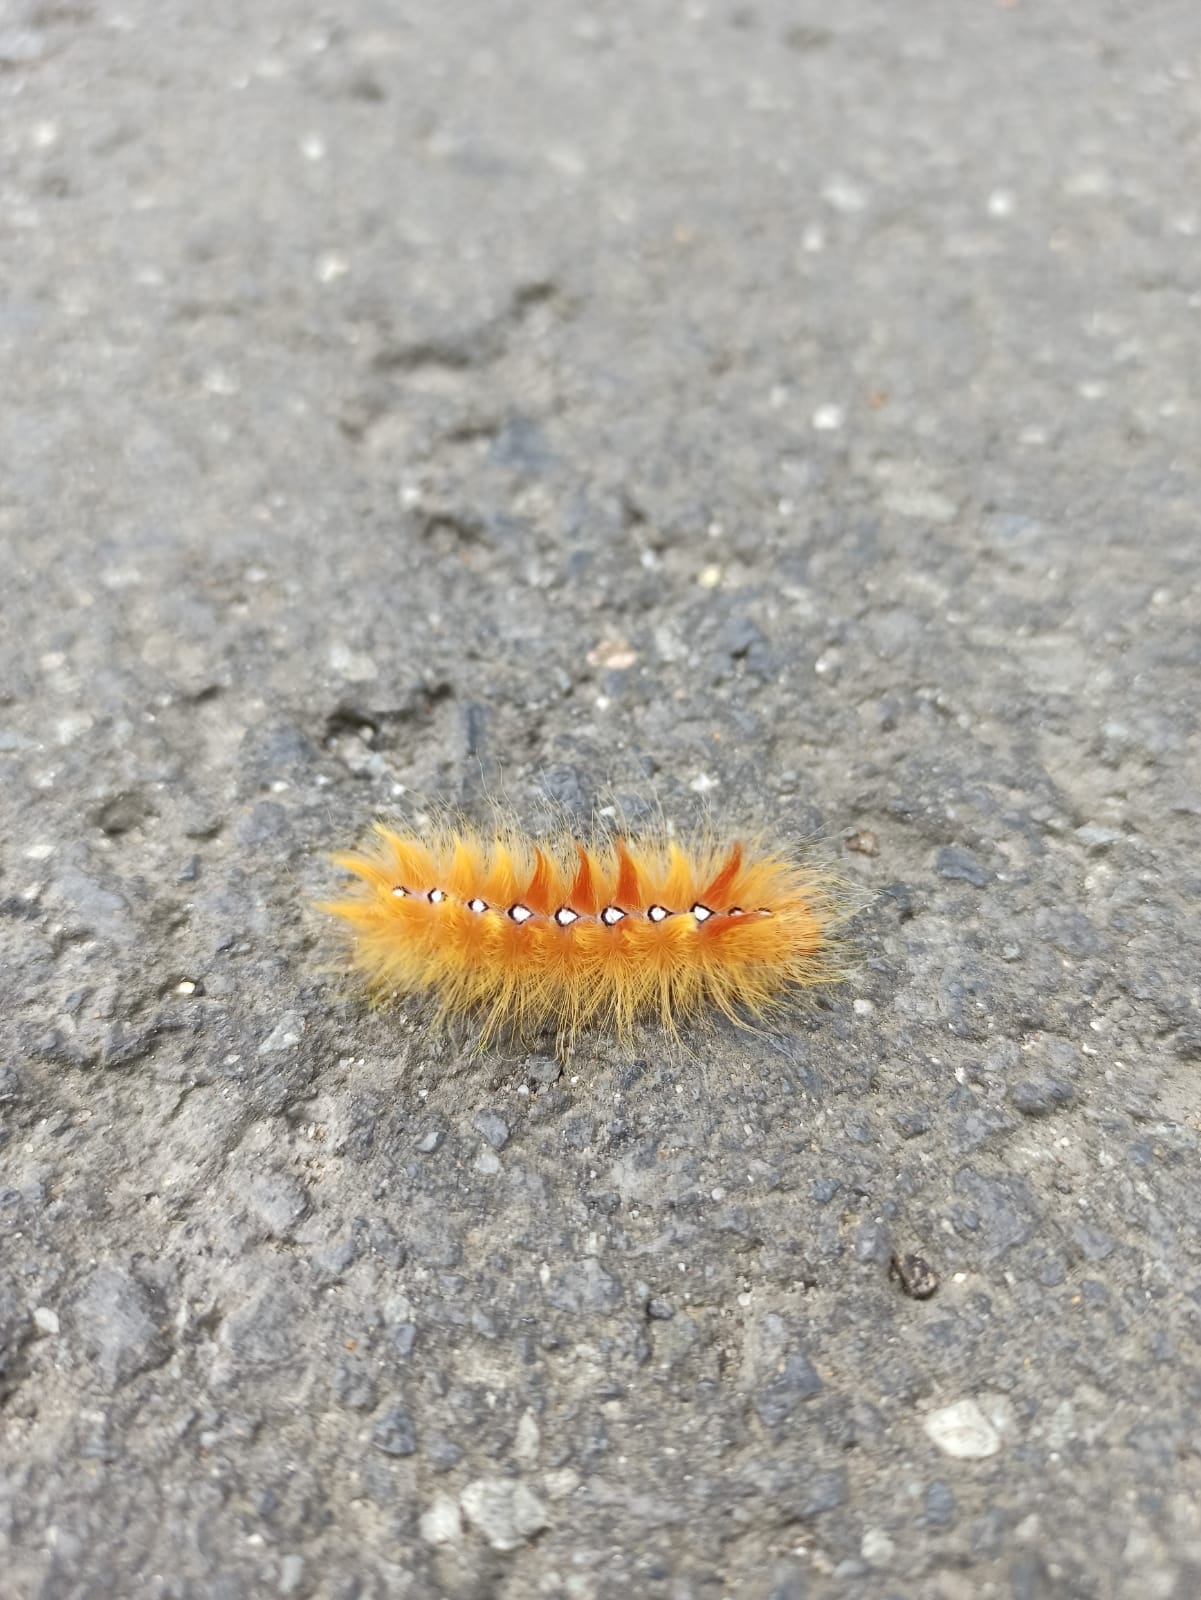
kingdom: Animalia
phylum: Arthropoda
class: Insecta
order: Lepidoptera
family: Noctuidae
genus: Acronicta
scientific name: Acronicta aceris
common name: Sycamore
